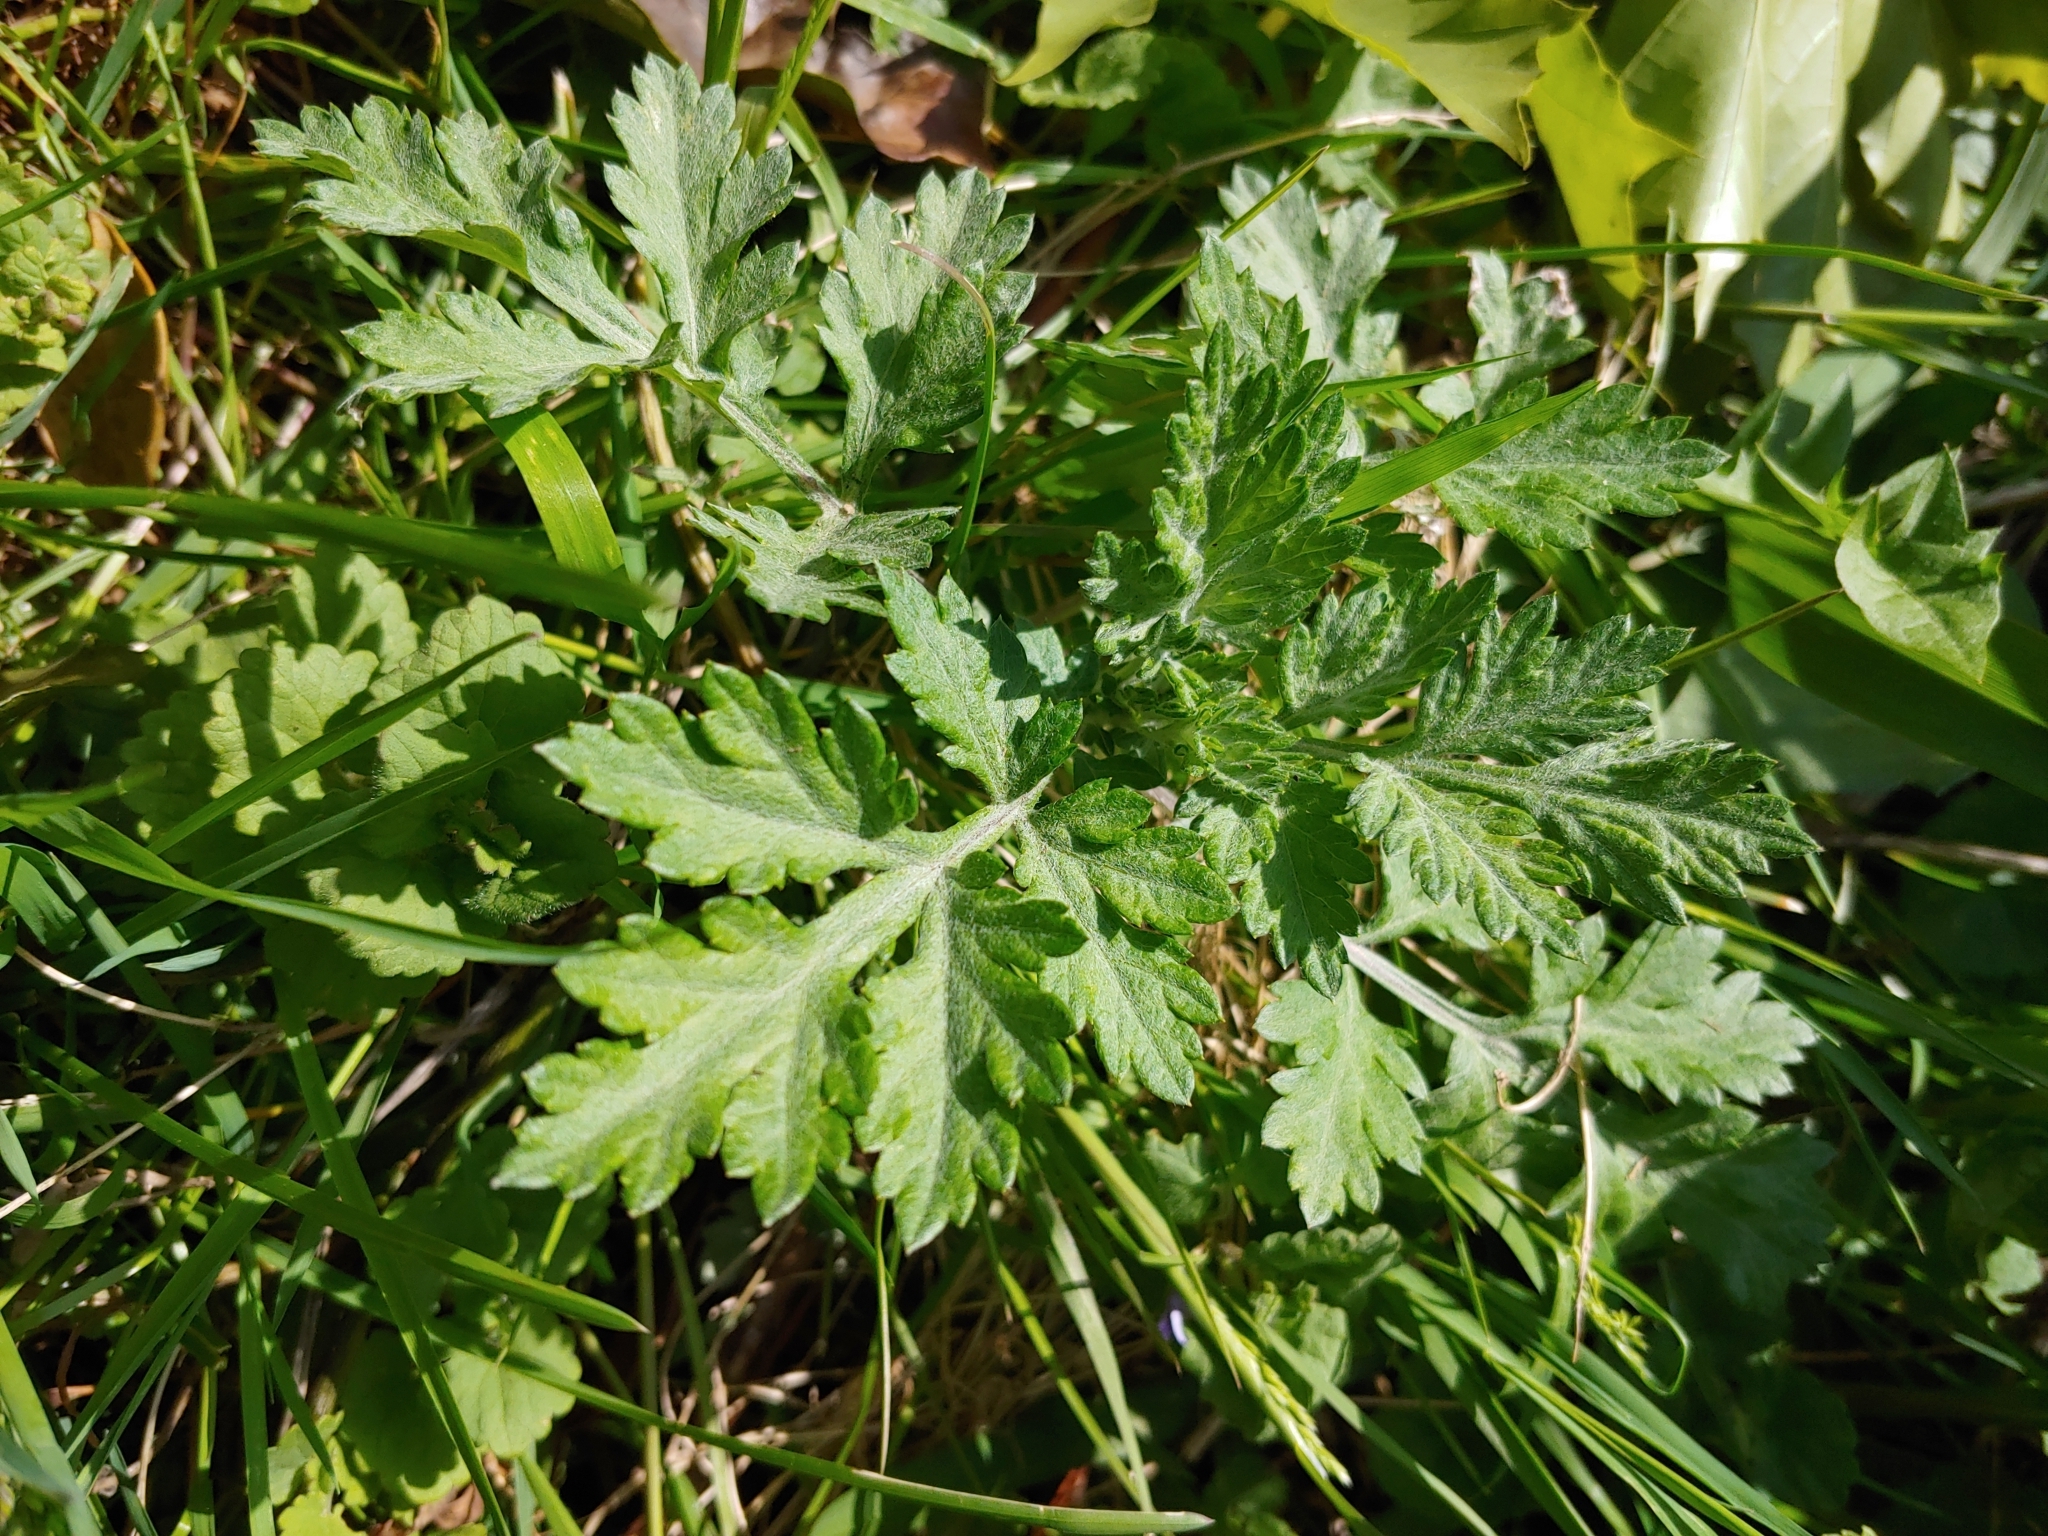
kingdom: Plantae
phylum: Tracheophyta
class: Magnoliopsida
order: Asterales
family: Asteraceae
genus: Artemisia
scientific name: Artemisia vulgaris
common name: Mugwort
